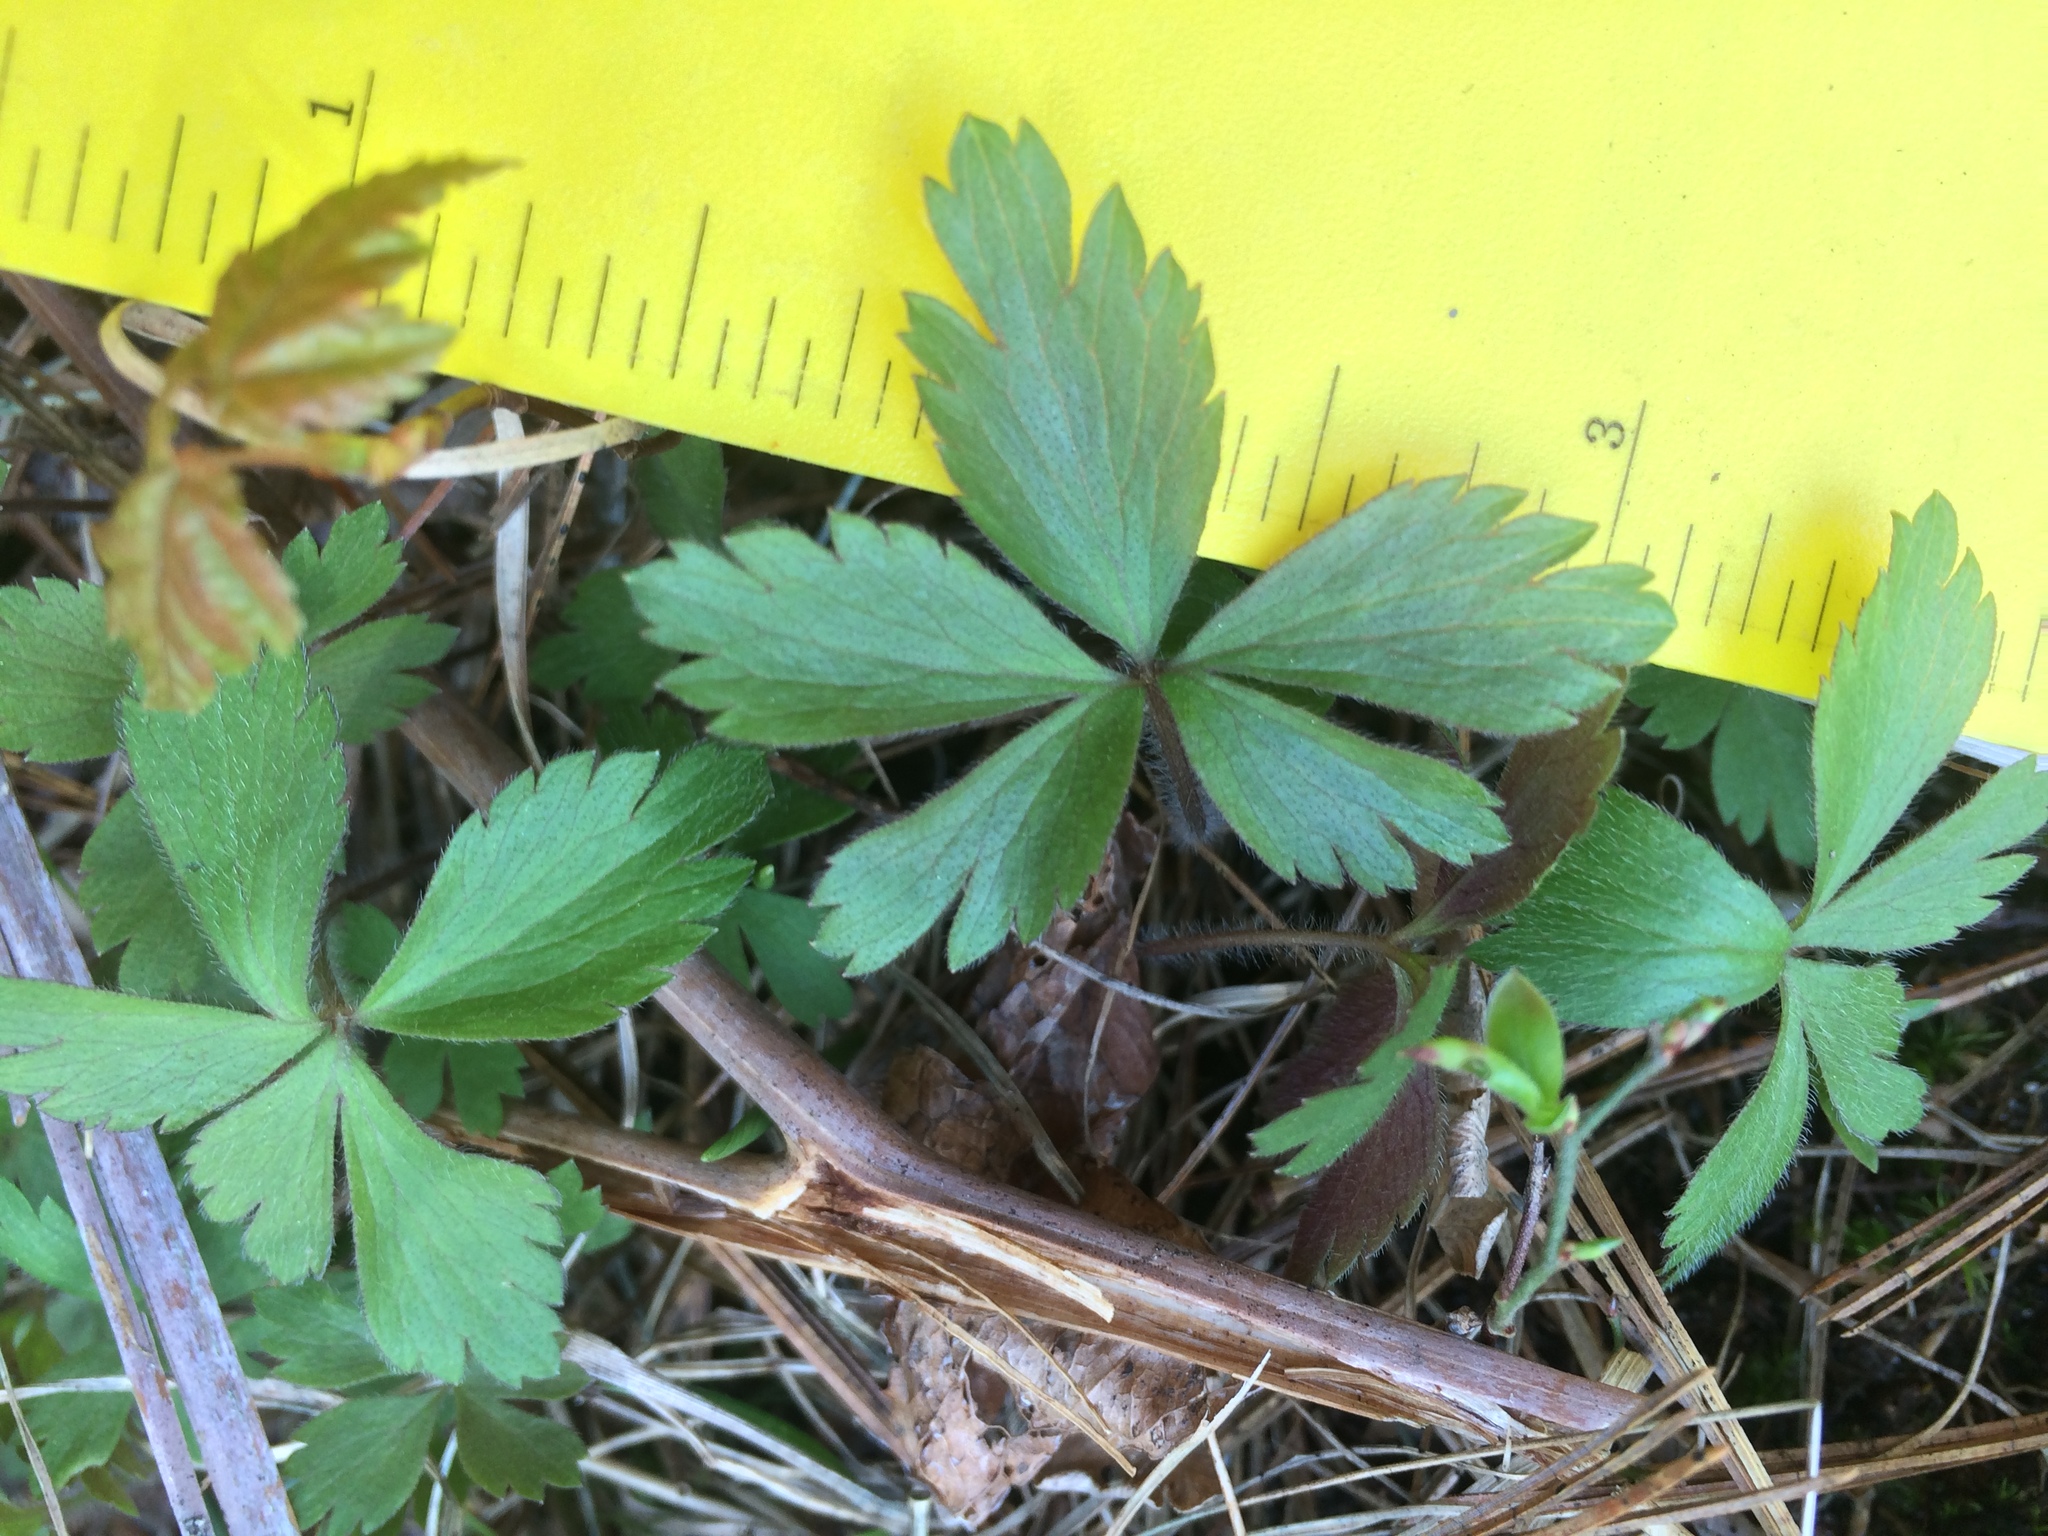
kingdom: Plantae
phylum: Tracheophyta
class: Magnoliopsida
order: Ranunculales
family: Ranunculaceae
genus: Anemone
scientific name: Anemone quinquefolia
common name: Wood anemone
